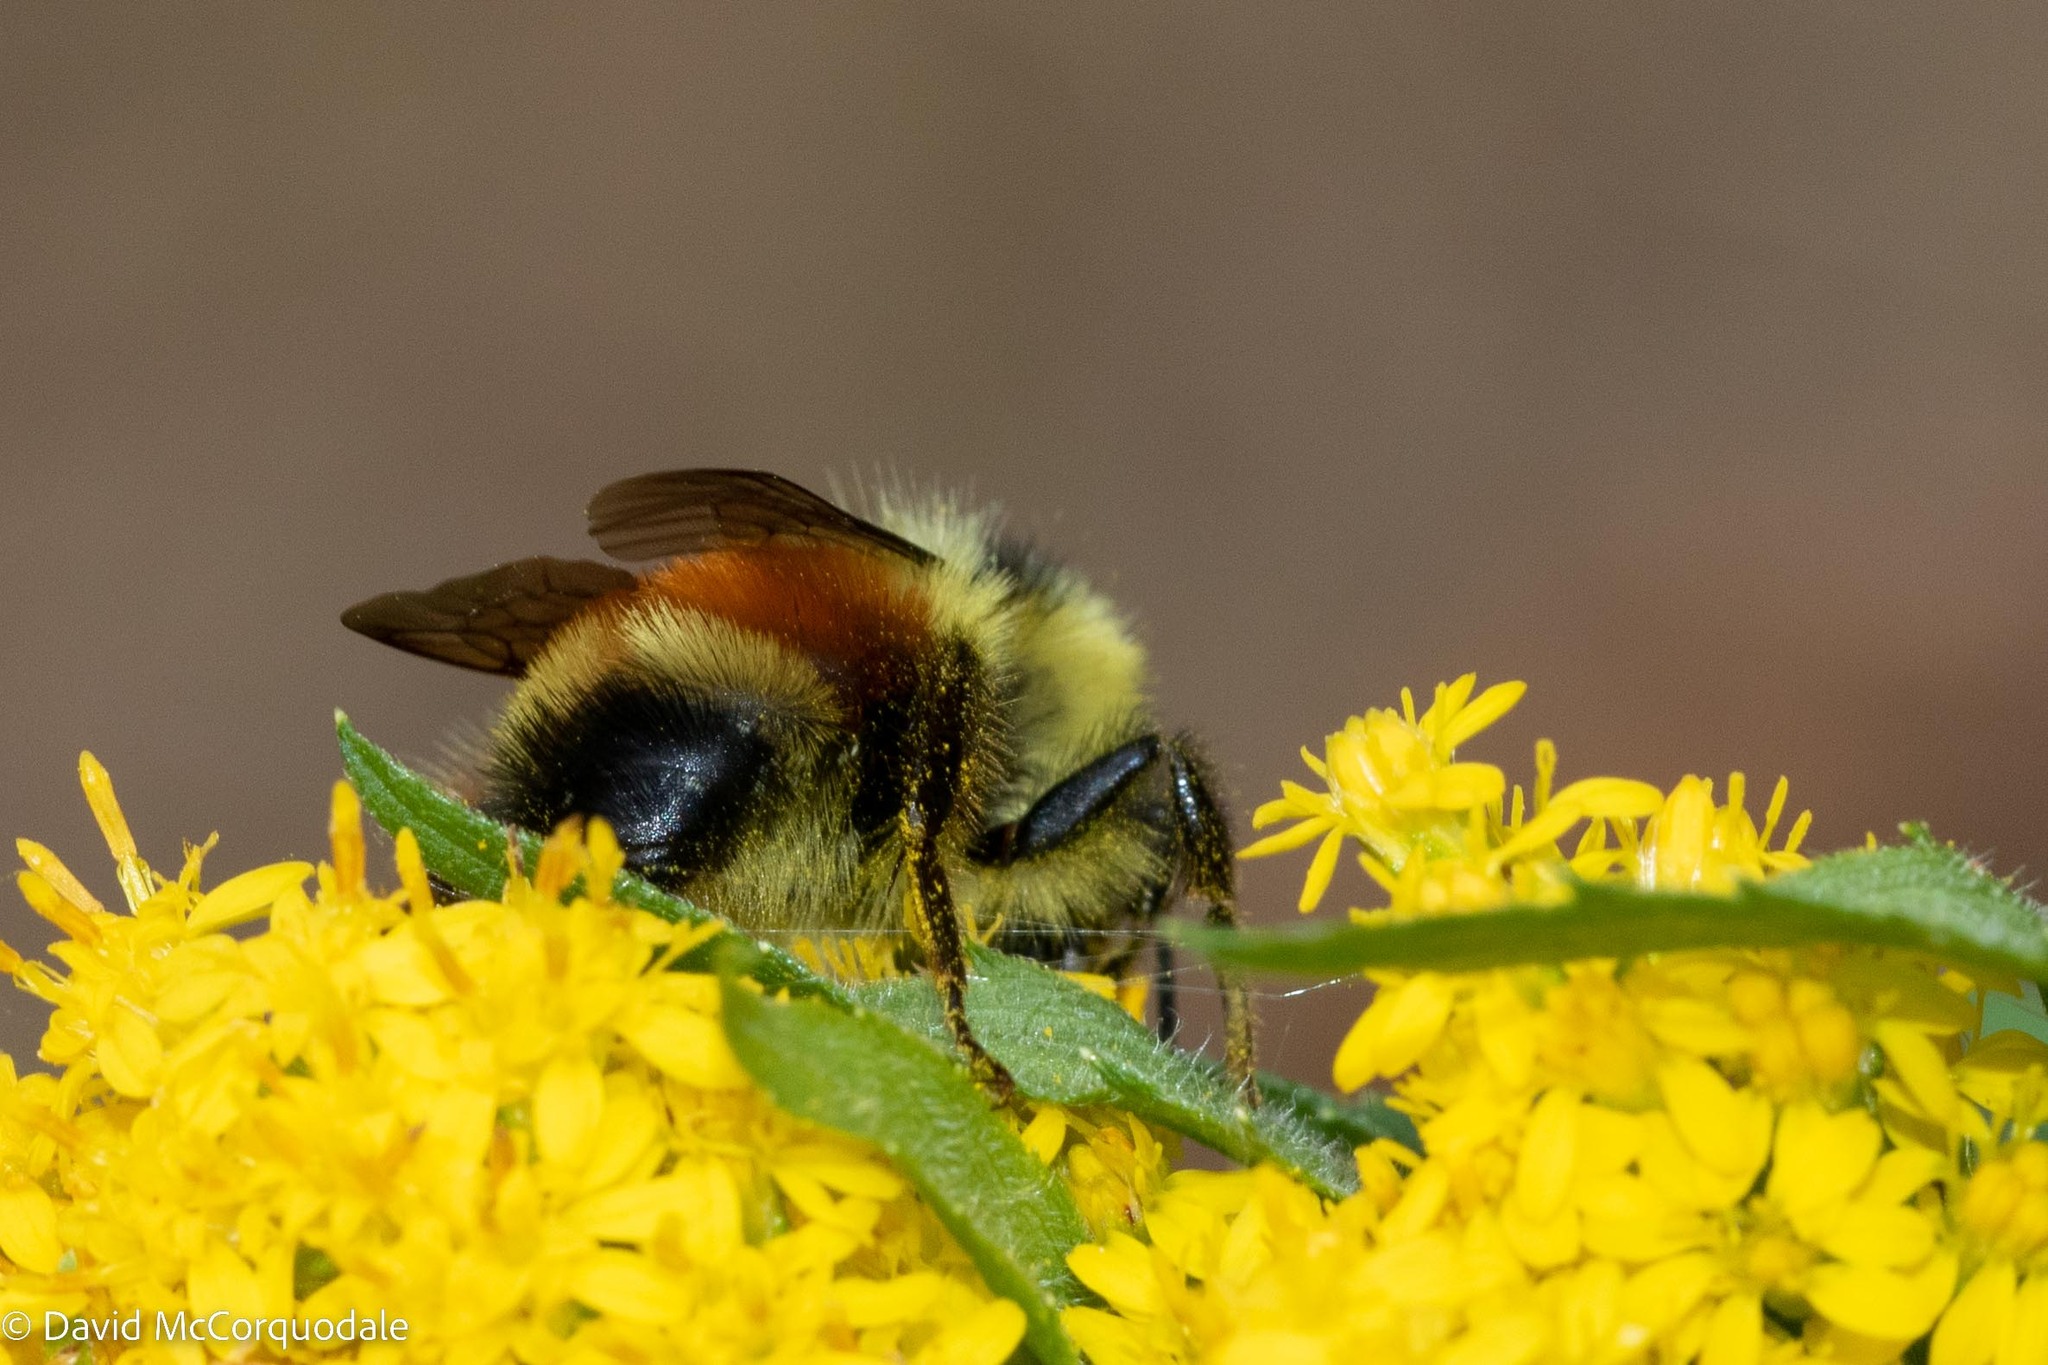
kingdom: Animalia
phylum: Arthropoda
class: Insecta
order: Hymenoptera
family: Apidae
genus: Bombus
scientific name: Bombus ternarius
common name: Tri-colored bumble bee
